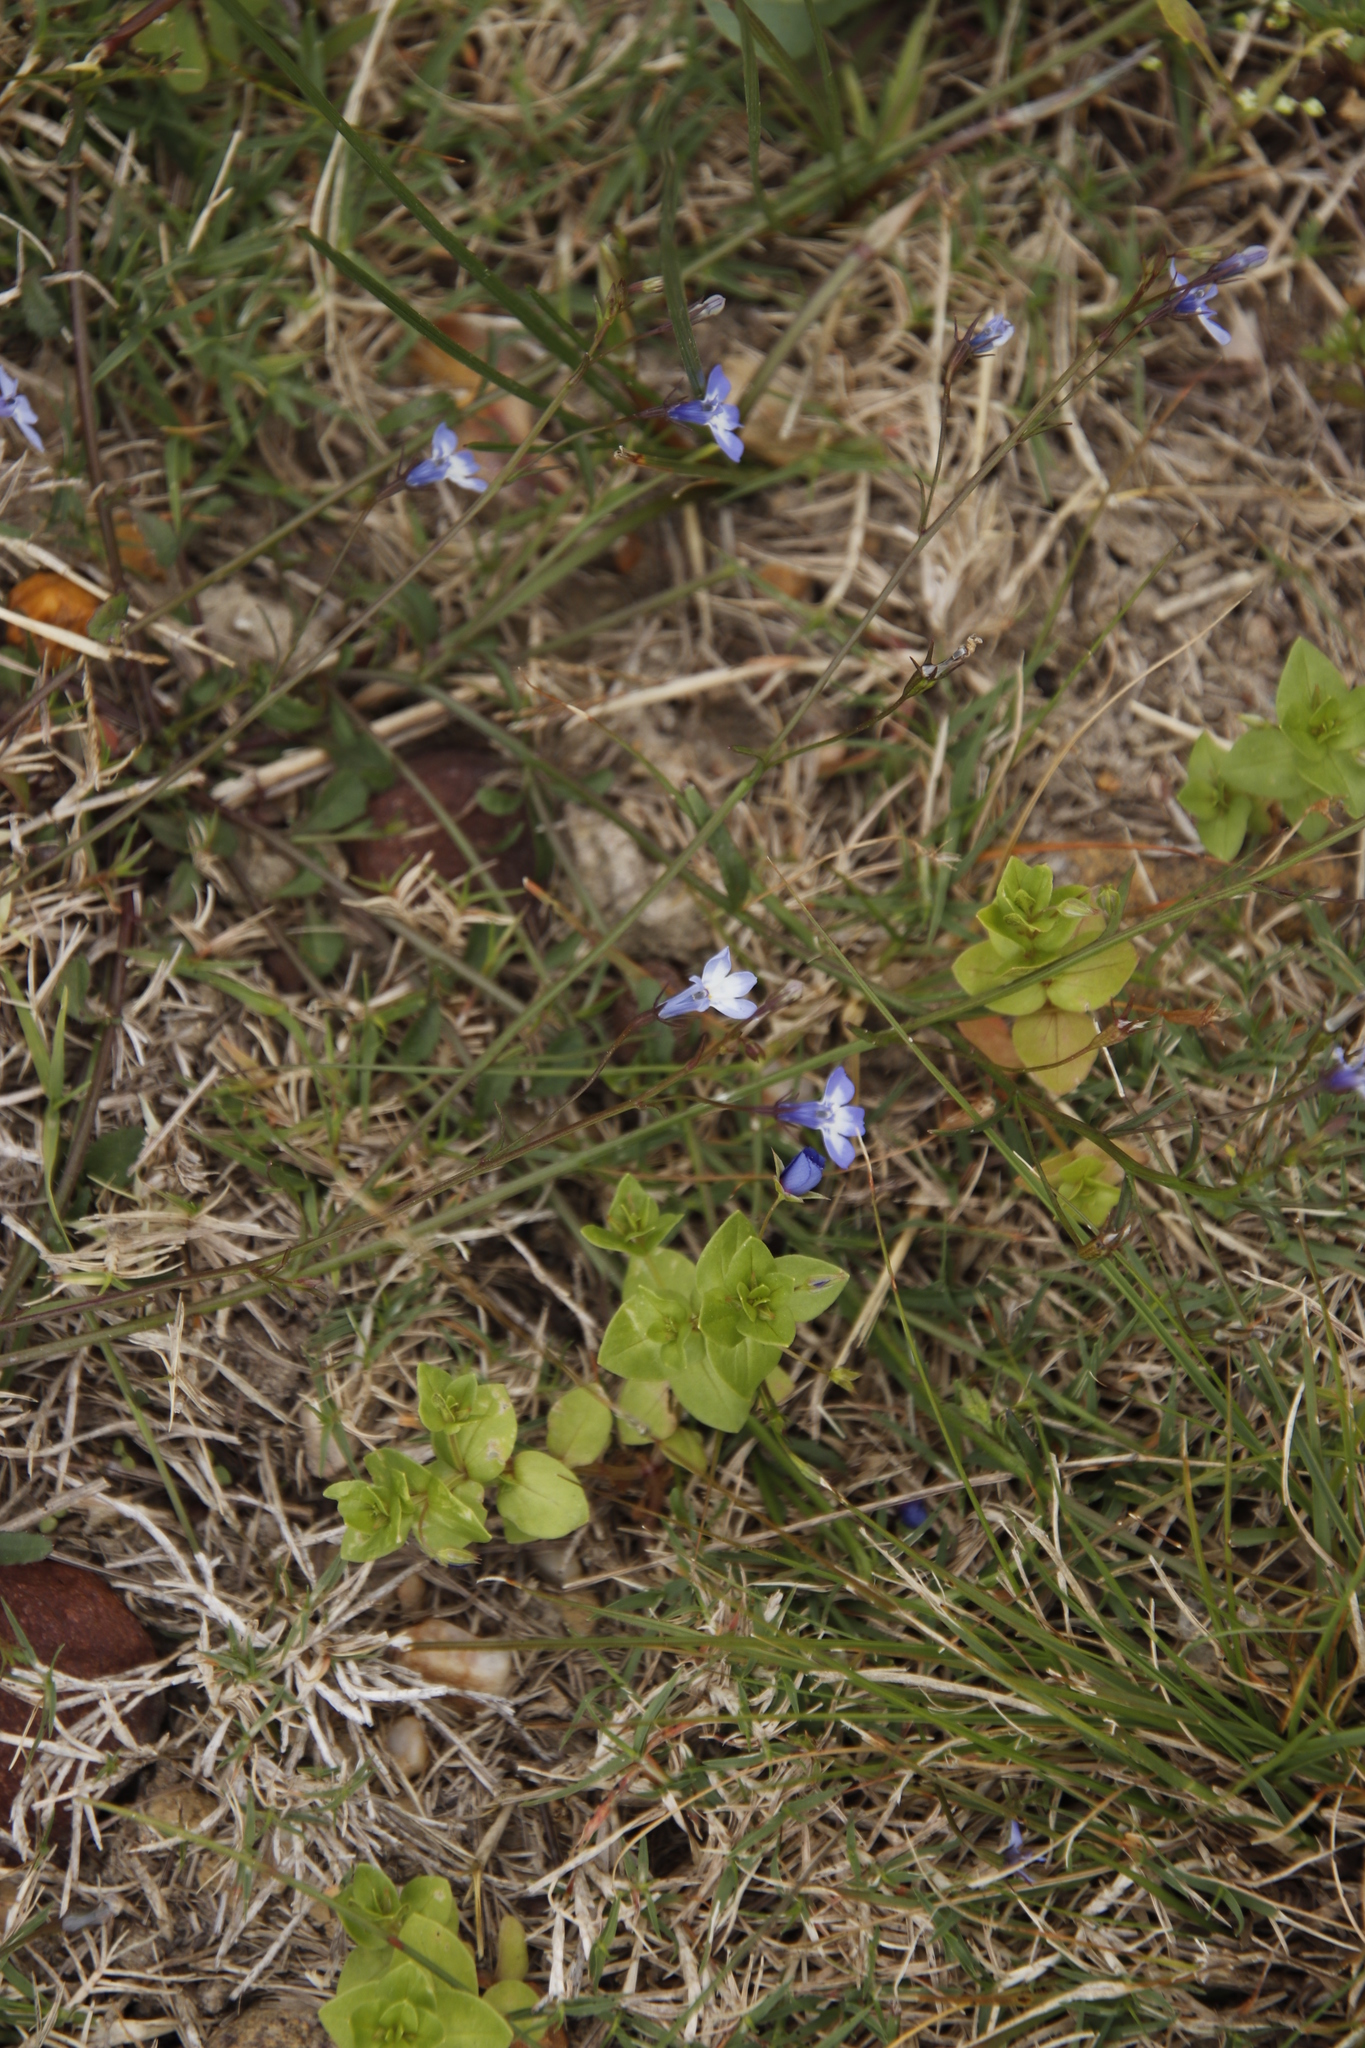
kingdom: Plantae
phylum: Tracheophyta
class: Magnoliopsida
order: Asterales
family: Campanulaceae
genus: Lobelia
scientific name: Lobelia erinus
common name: Edging lobelia
